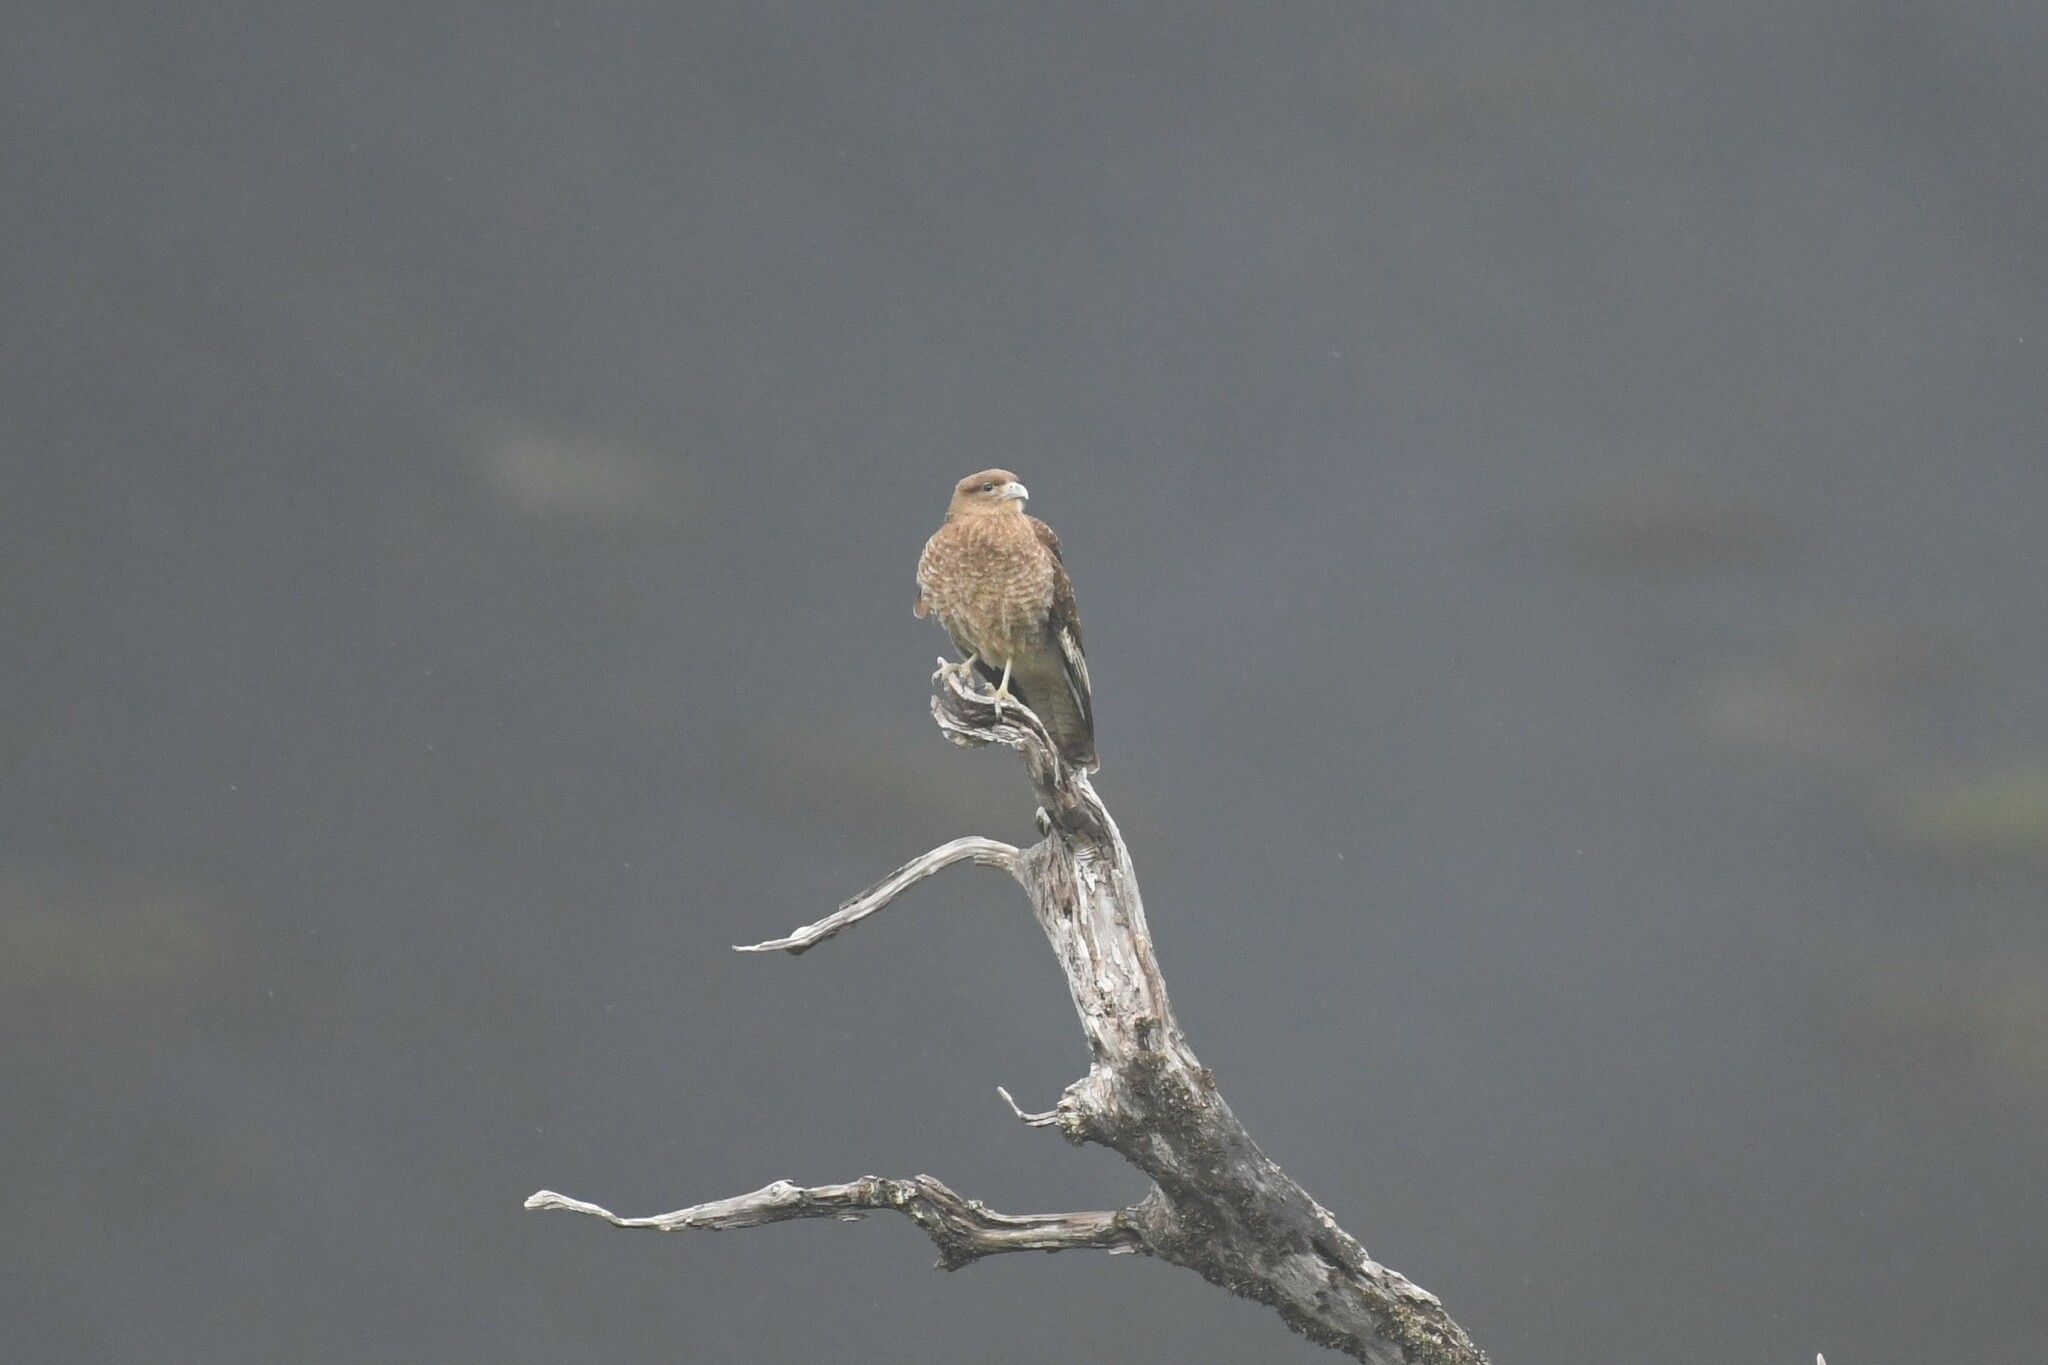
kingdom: Animalia
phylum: Chordata
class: Aves
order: Falconiformes
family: Falconidae
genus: Daptrius
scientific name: Daptrius
